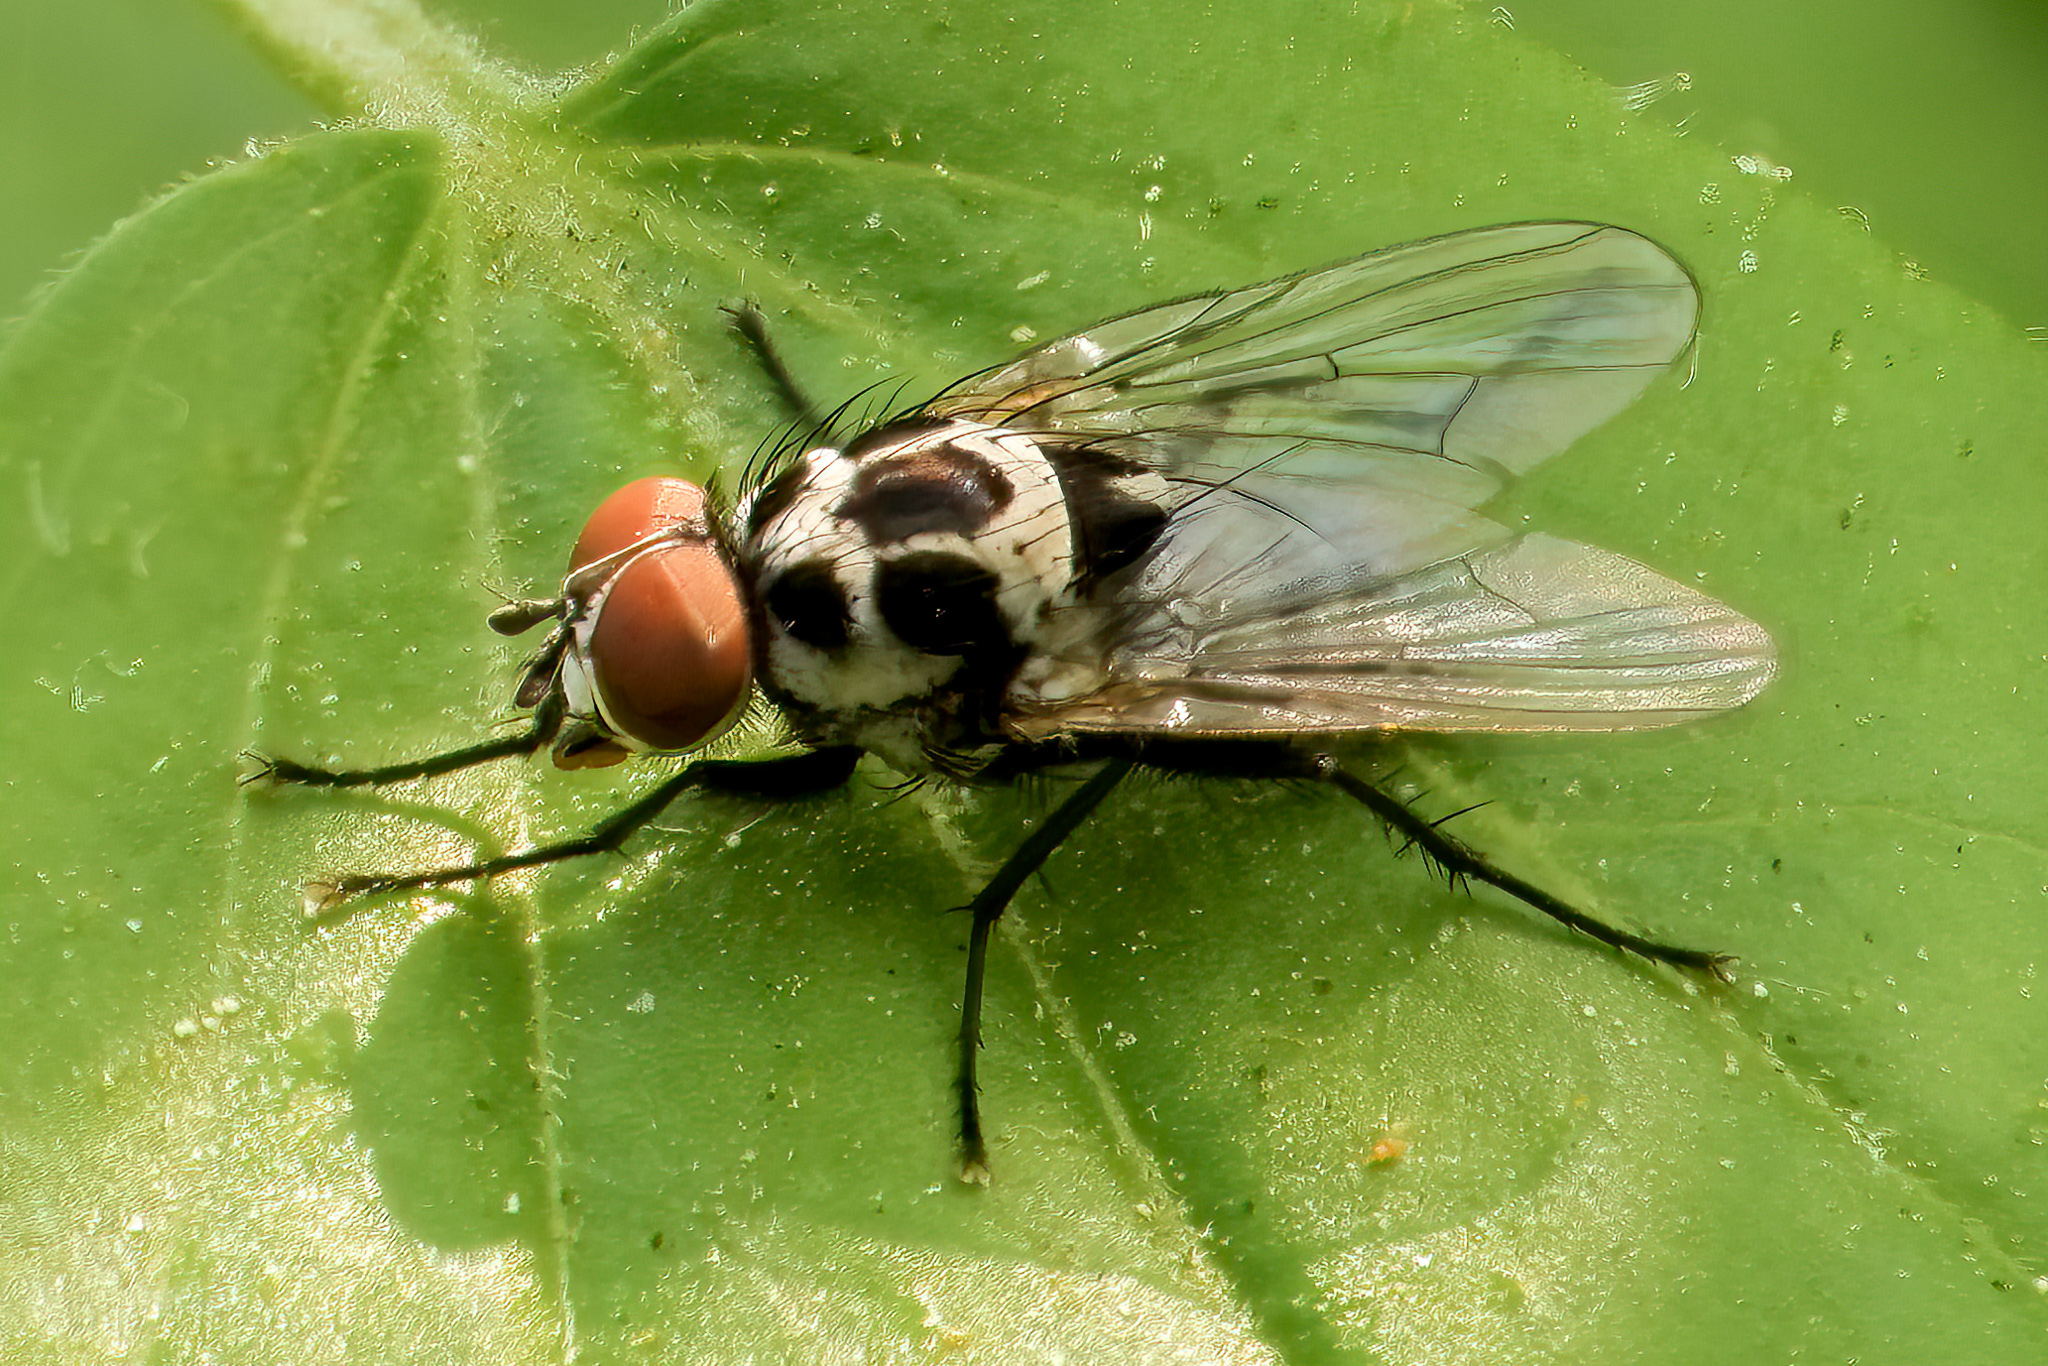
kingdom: Animalia
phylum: Arthropoda
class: Insecta
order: Diptera
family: Anthomyiidae
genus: Anthomyia
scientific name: Anthomyia procellaris
